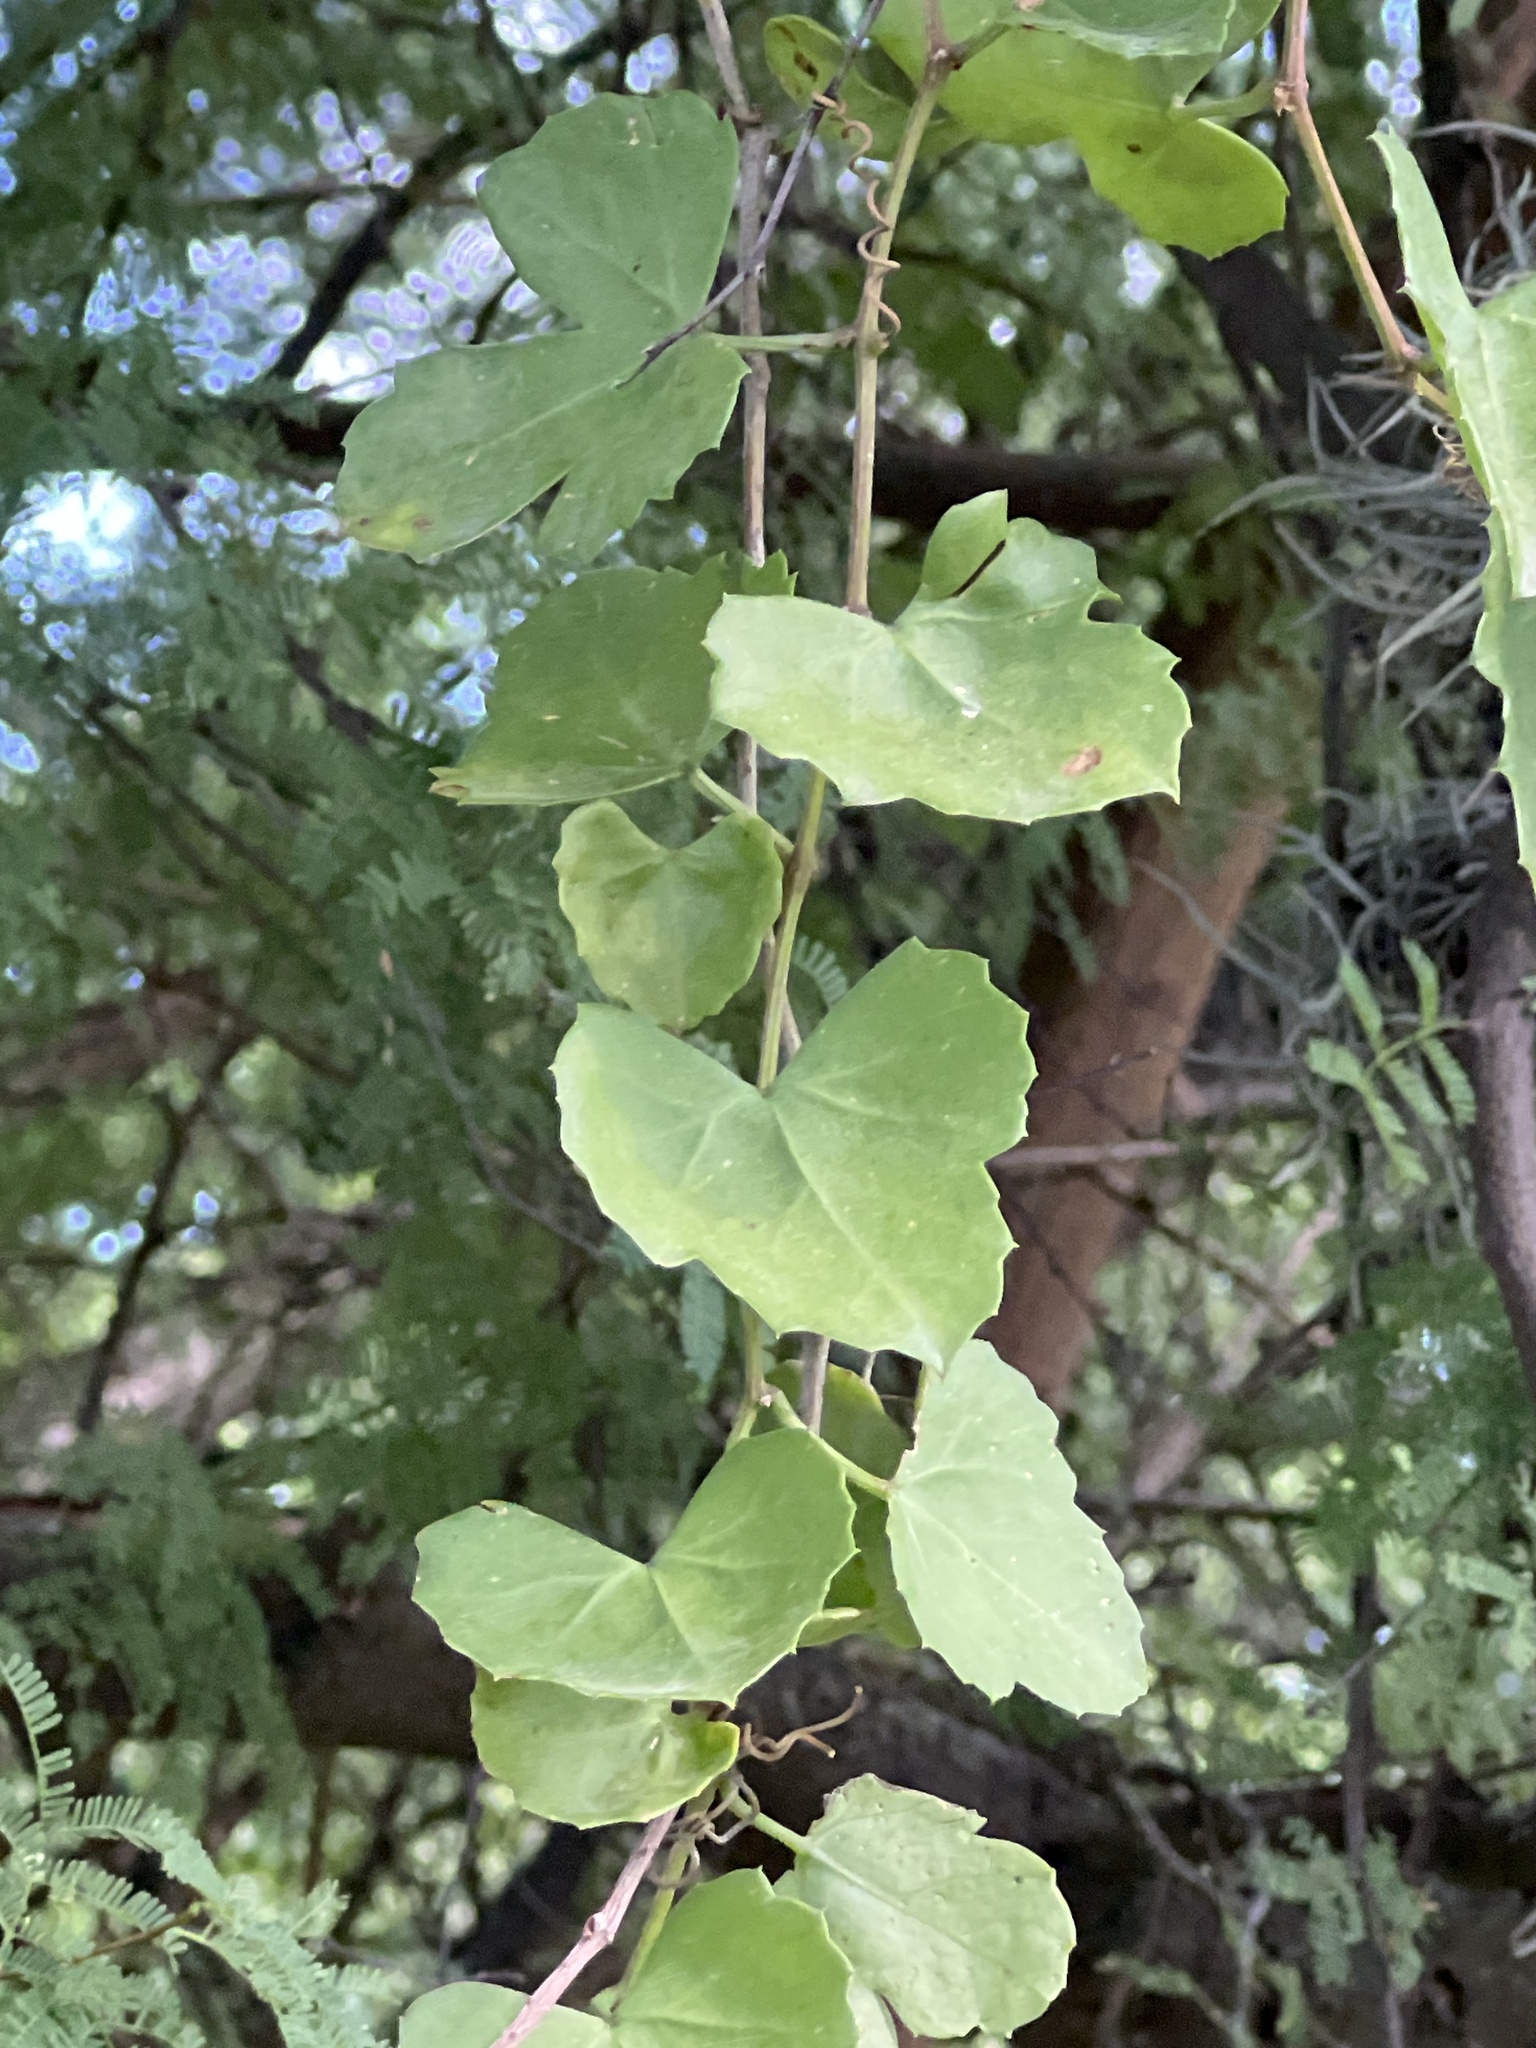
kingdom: Plantae
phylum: Tracheophyta
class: Magnoliopsida
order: Vitales
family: Vitaceae
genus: Cissus
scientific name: Cissus trifoliata
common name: Vine-sorrel
